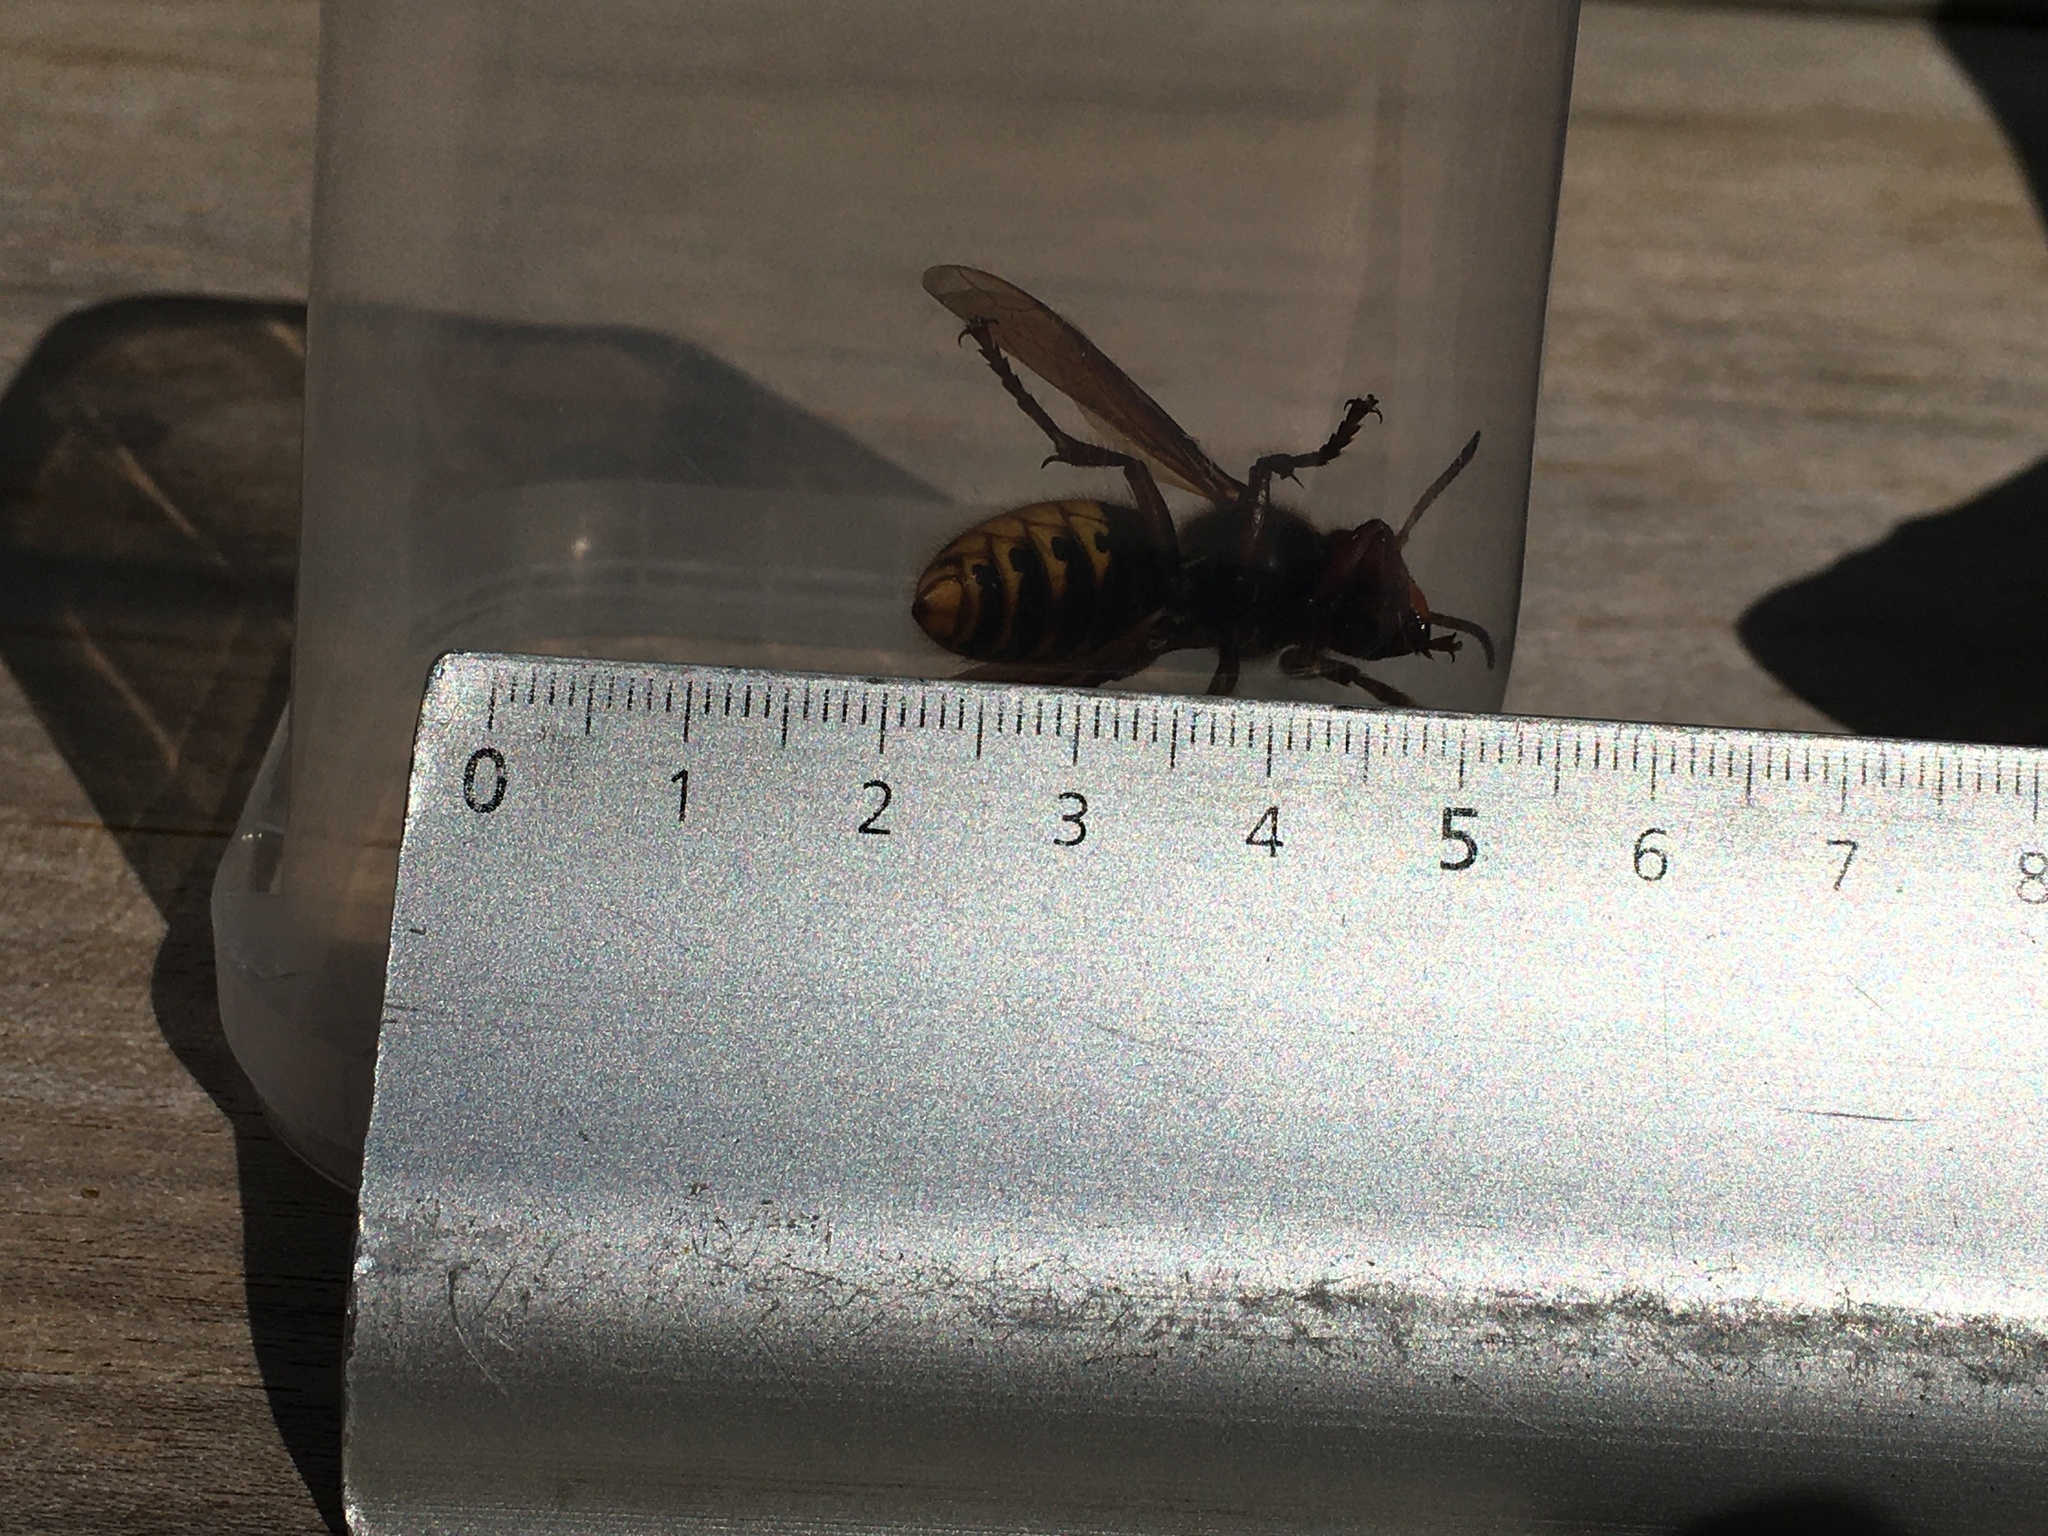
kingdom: Animalia
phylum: Arthropoda
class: Insecta
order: Hymenoptera
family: Vespidae
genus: Vespa
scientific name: Vespa crabro
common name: Hornet
